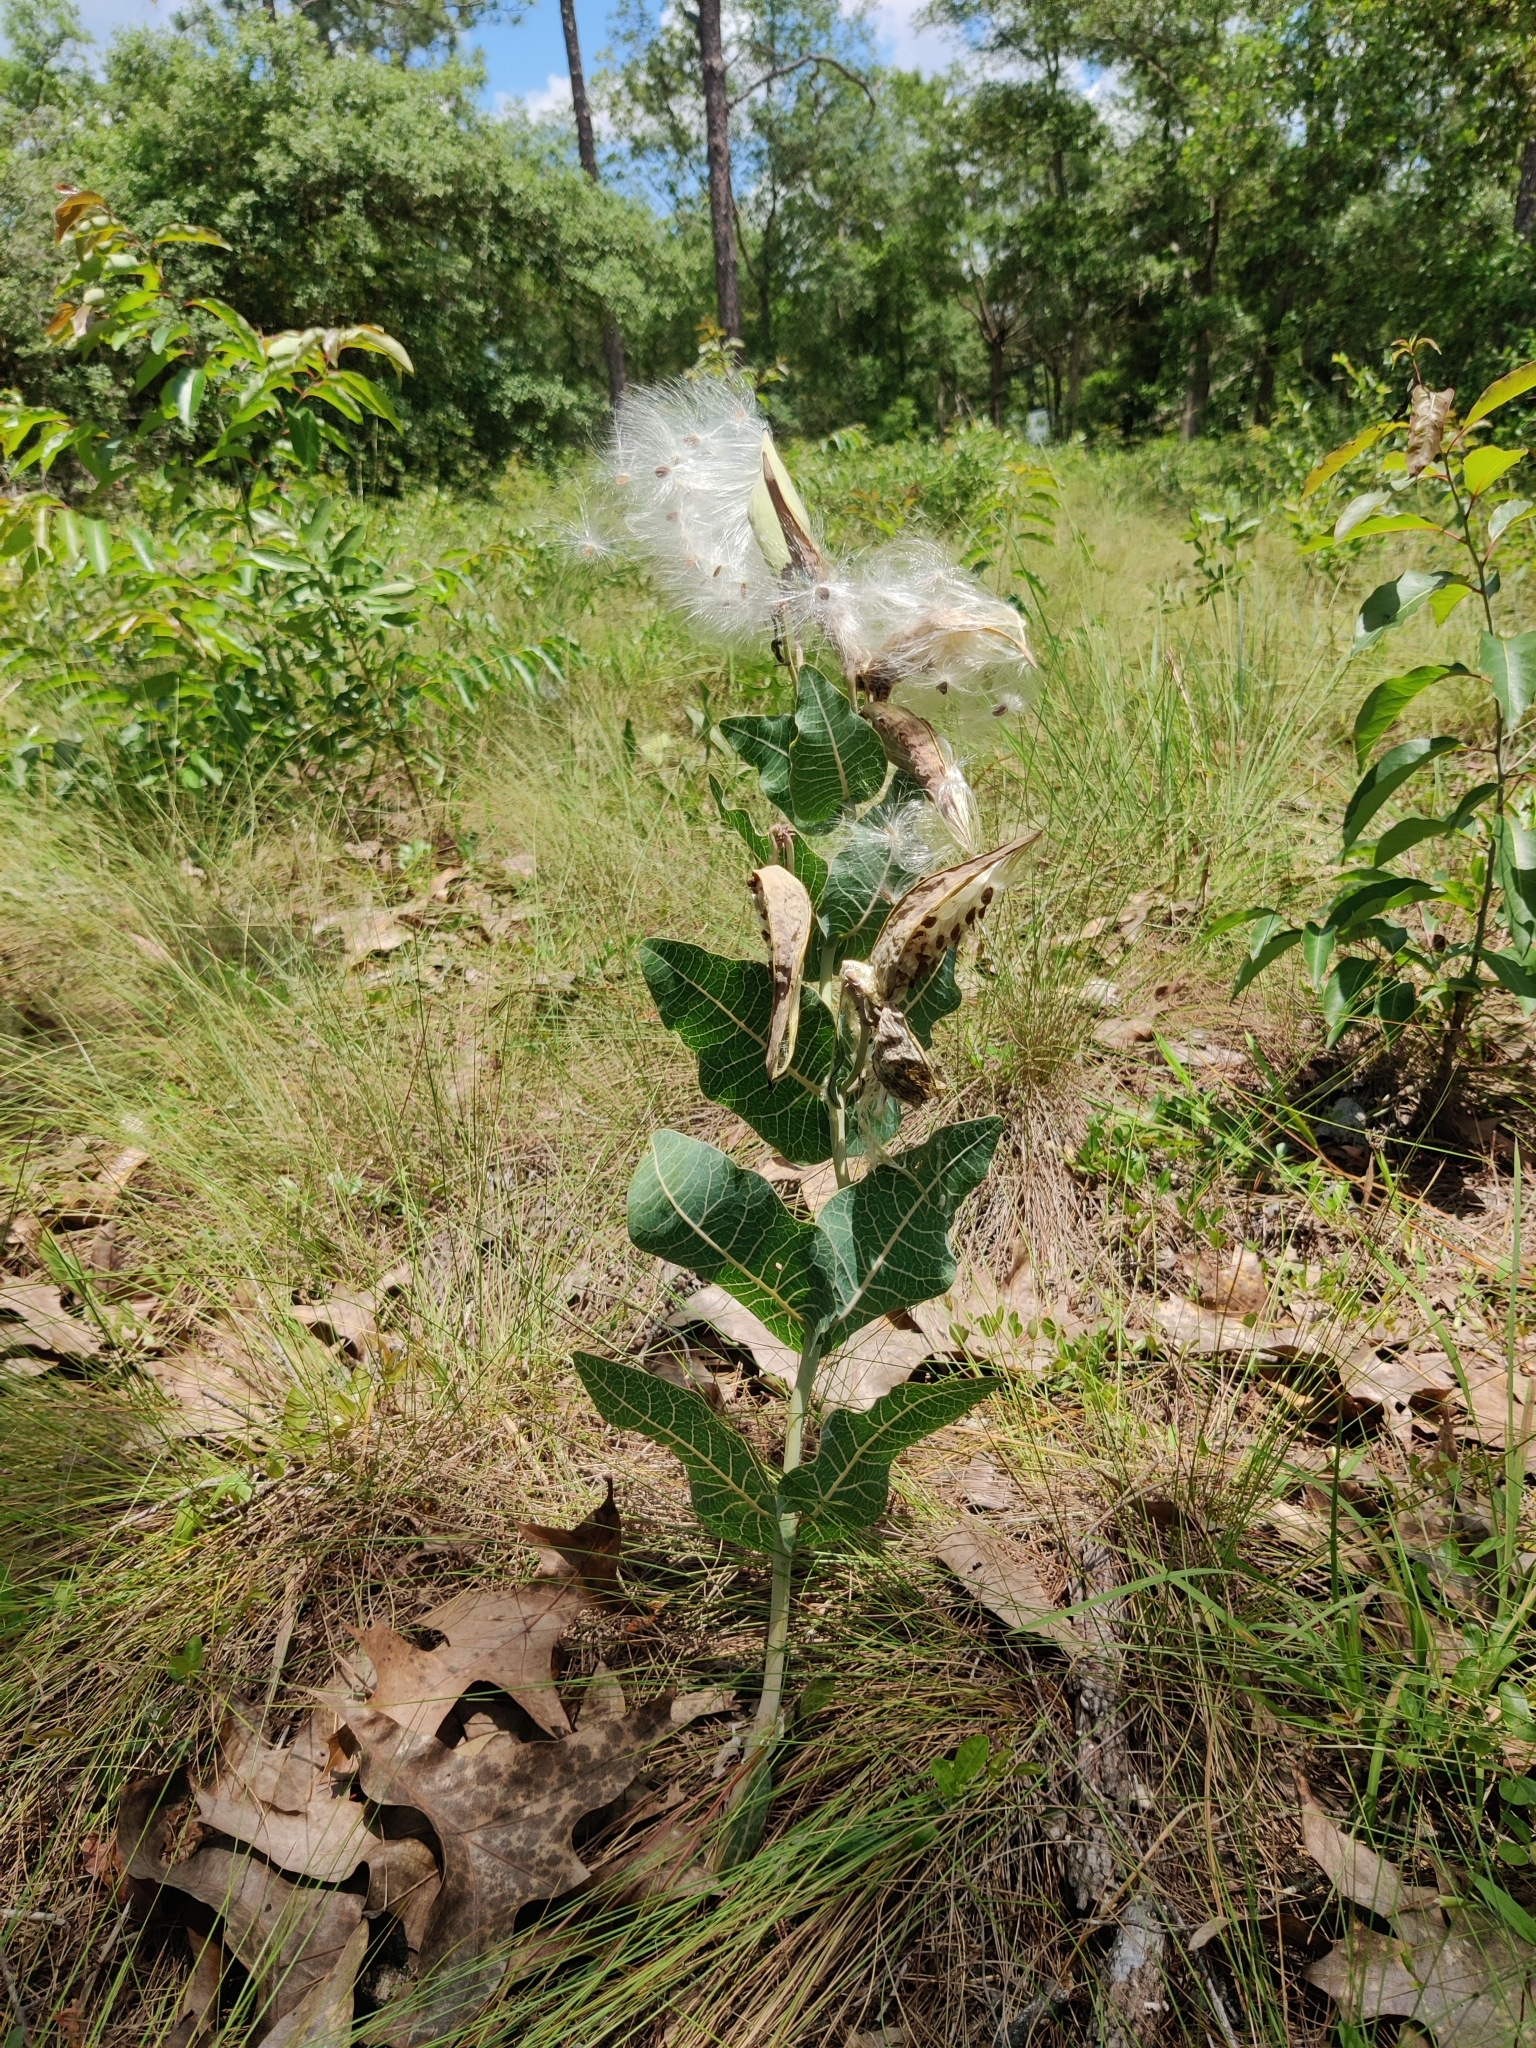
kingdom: Plantae
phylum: Tracheophyta
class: Magnoliopsida
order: Gentianales
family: Apocynaceae
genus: Asclepias
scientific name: Asclepias humistrata
